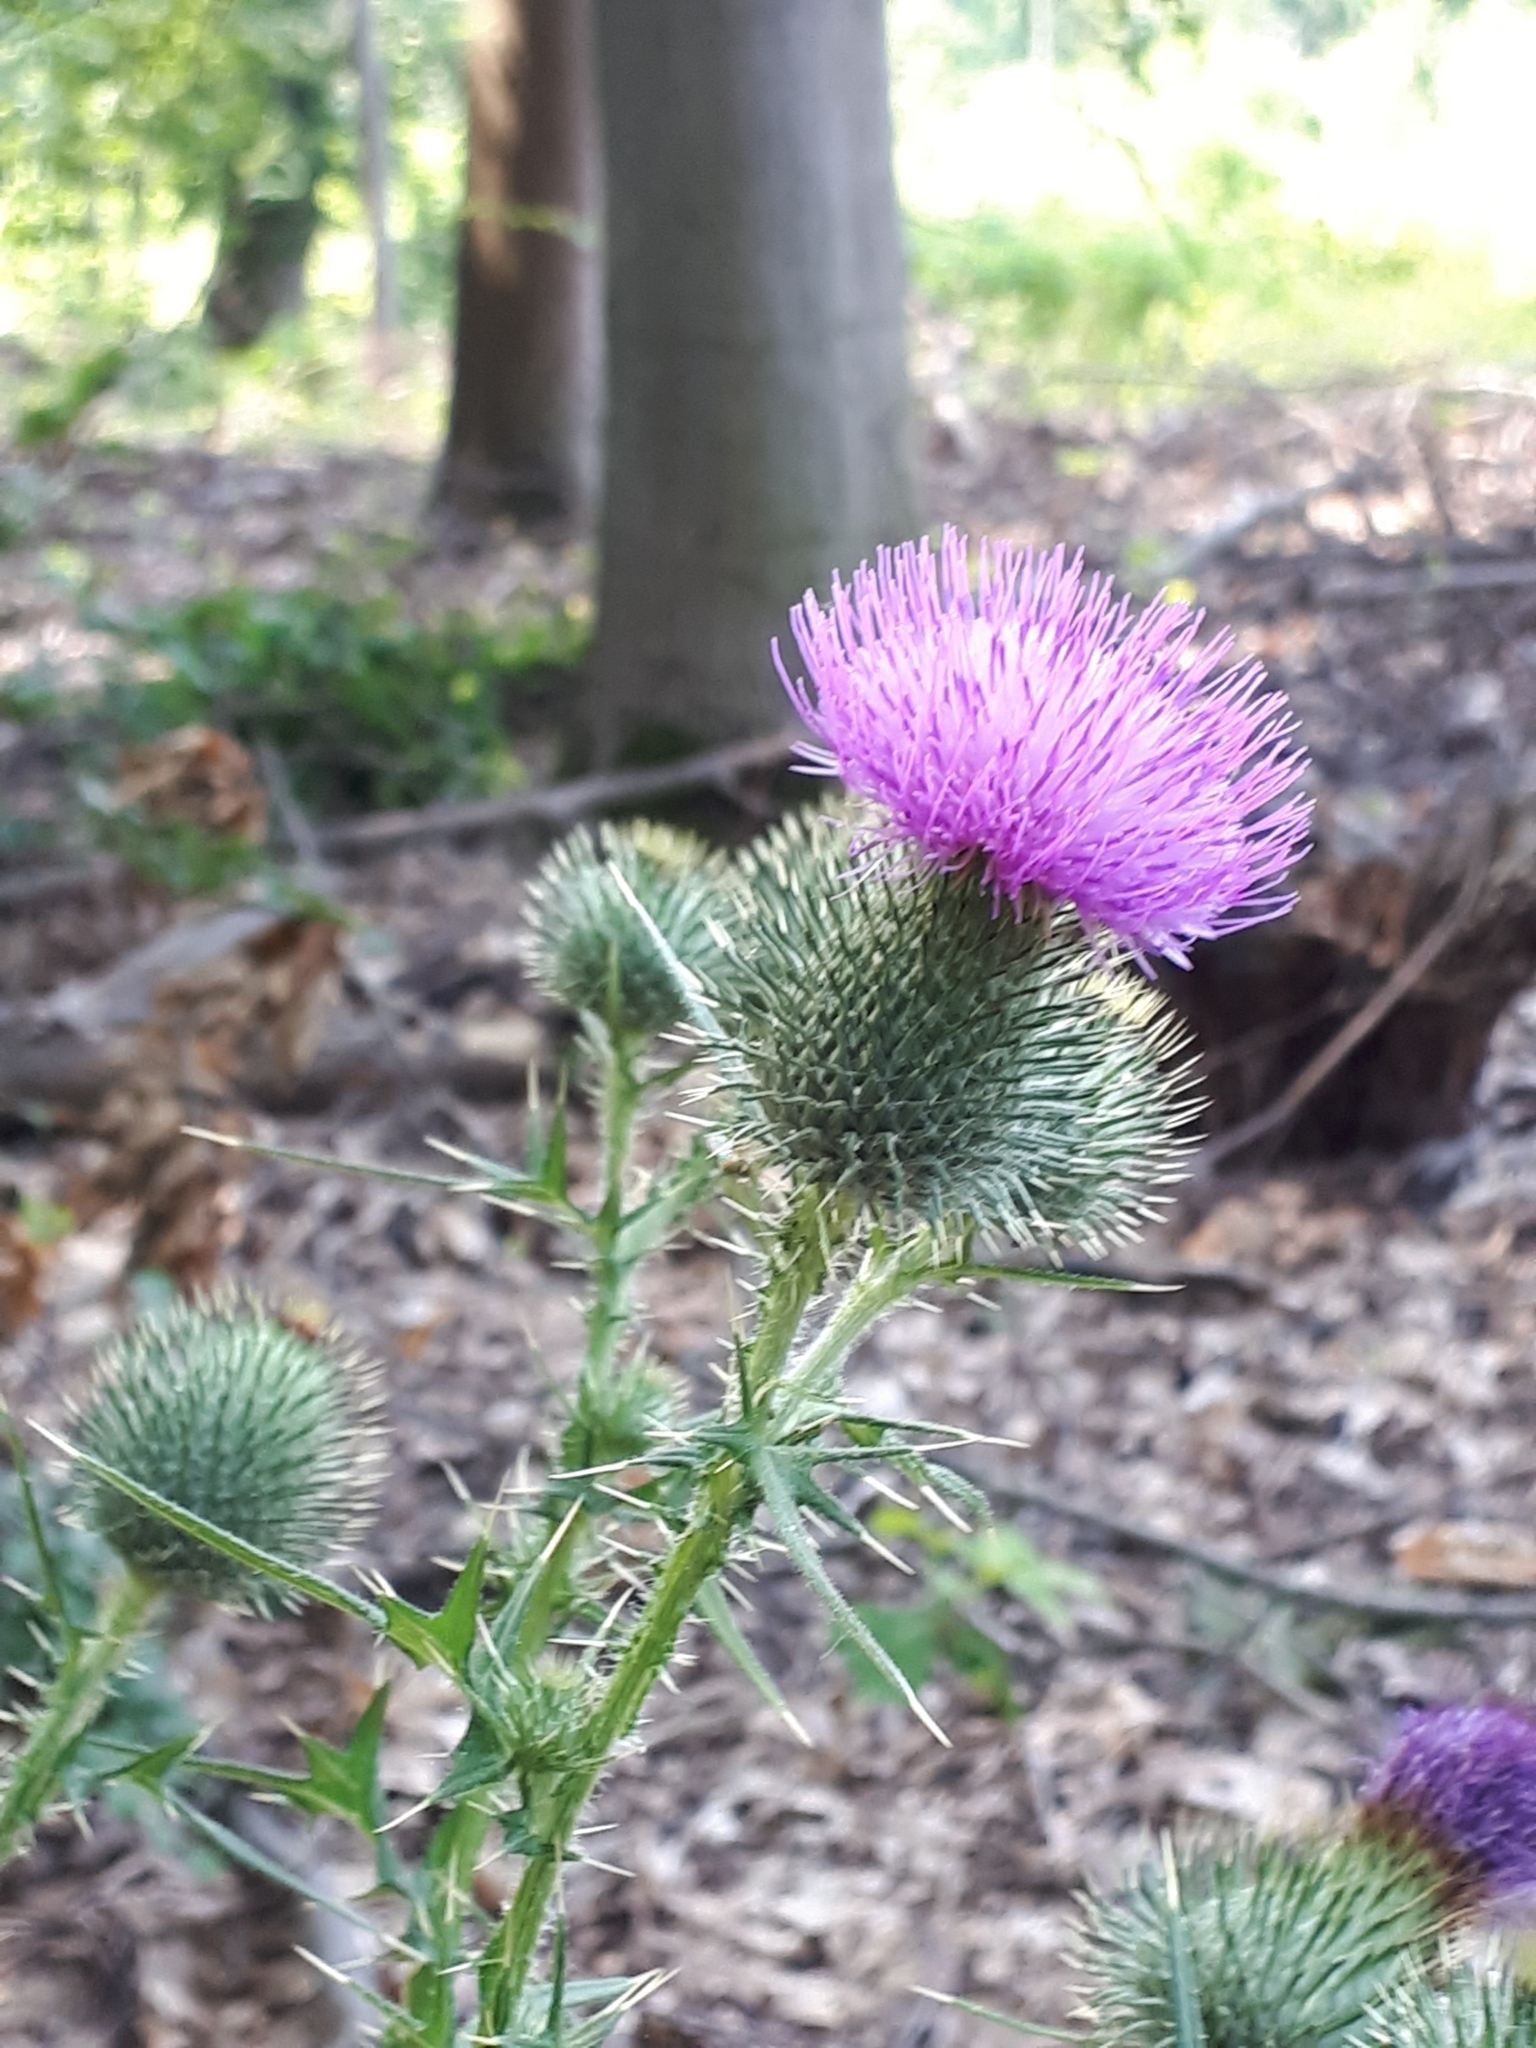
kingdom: Plantae
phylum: Tracheophyta
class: Magnoliopsida
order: Asterales
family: Asteraceae
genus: Cirsium
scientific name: Cirsium vulgare
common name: Bull thistle
